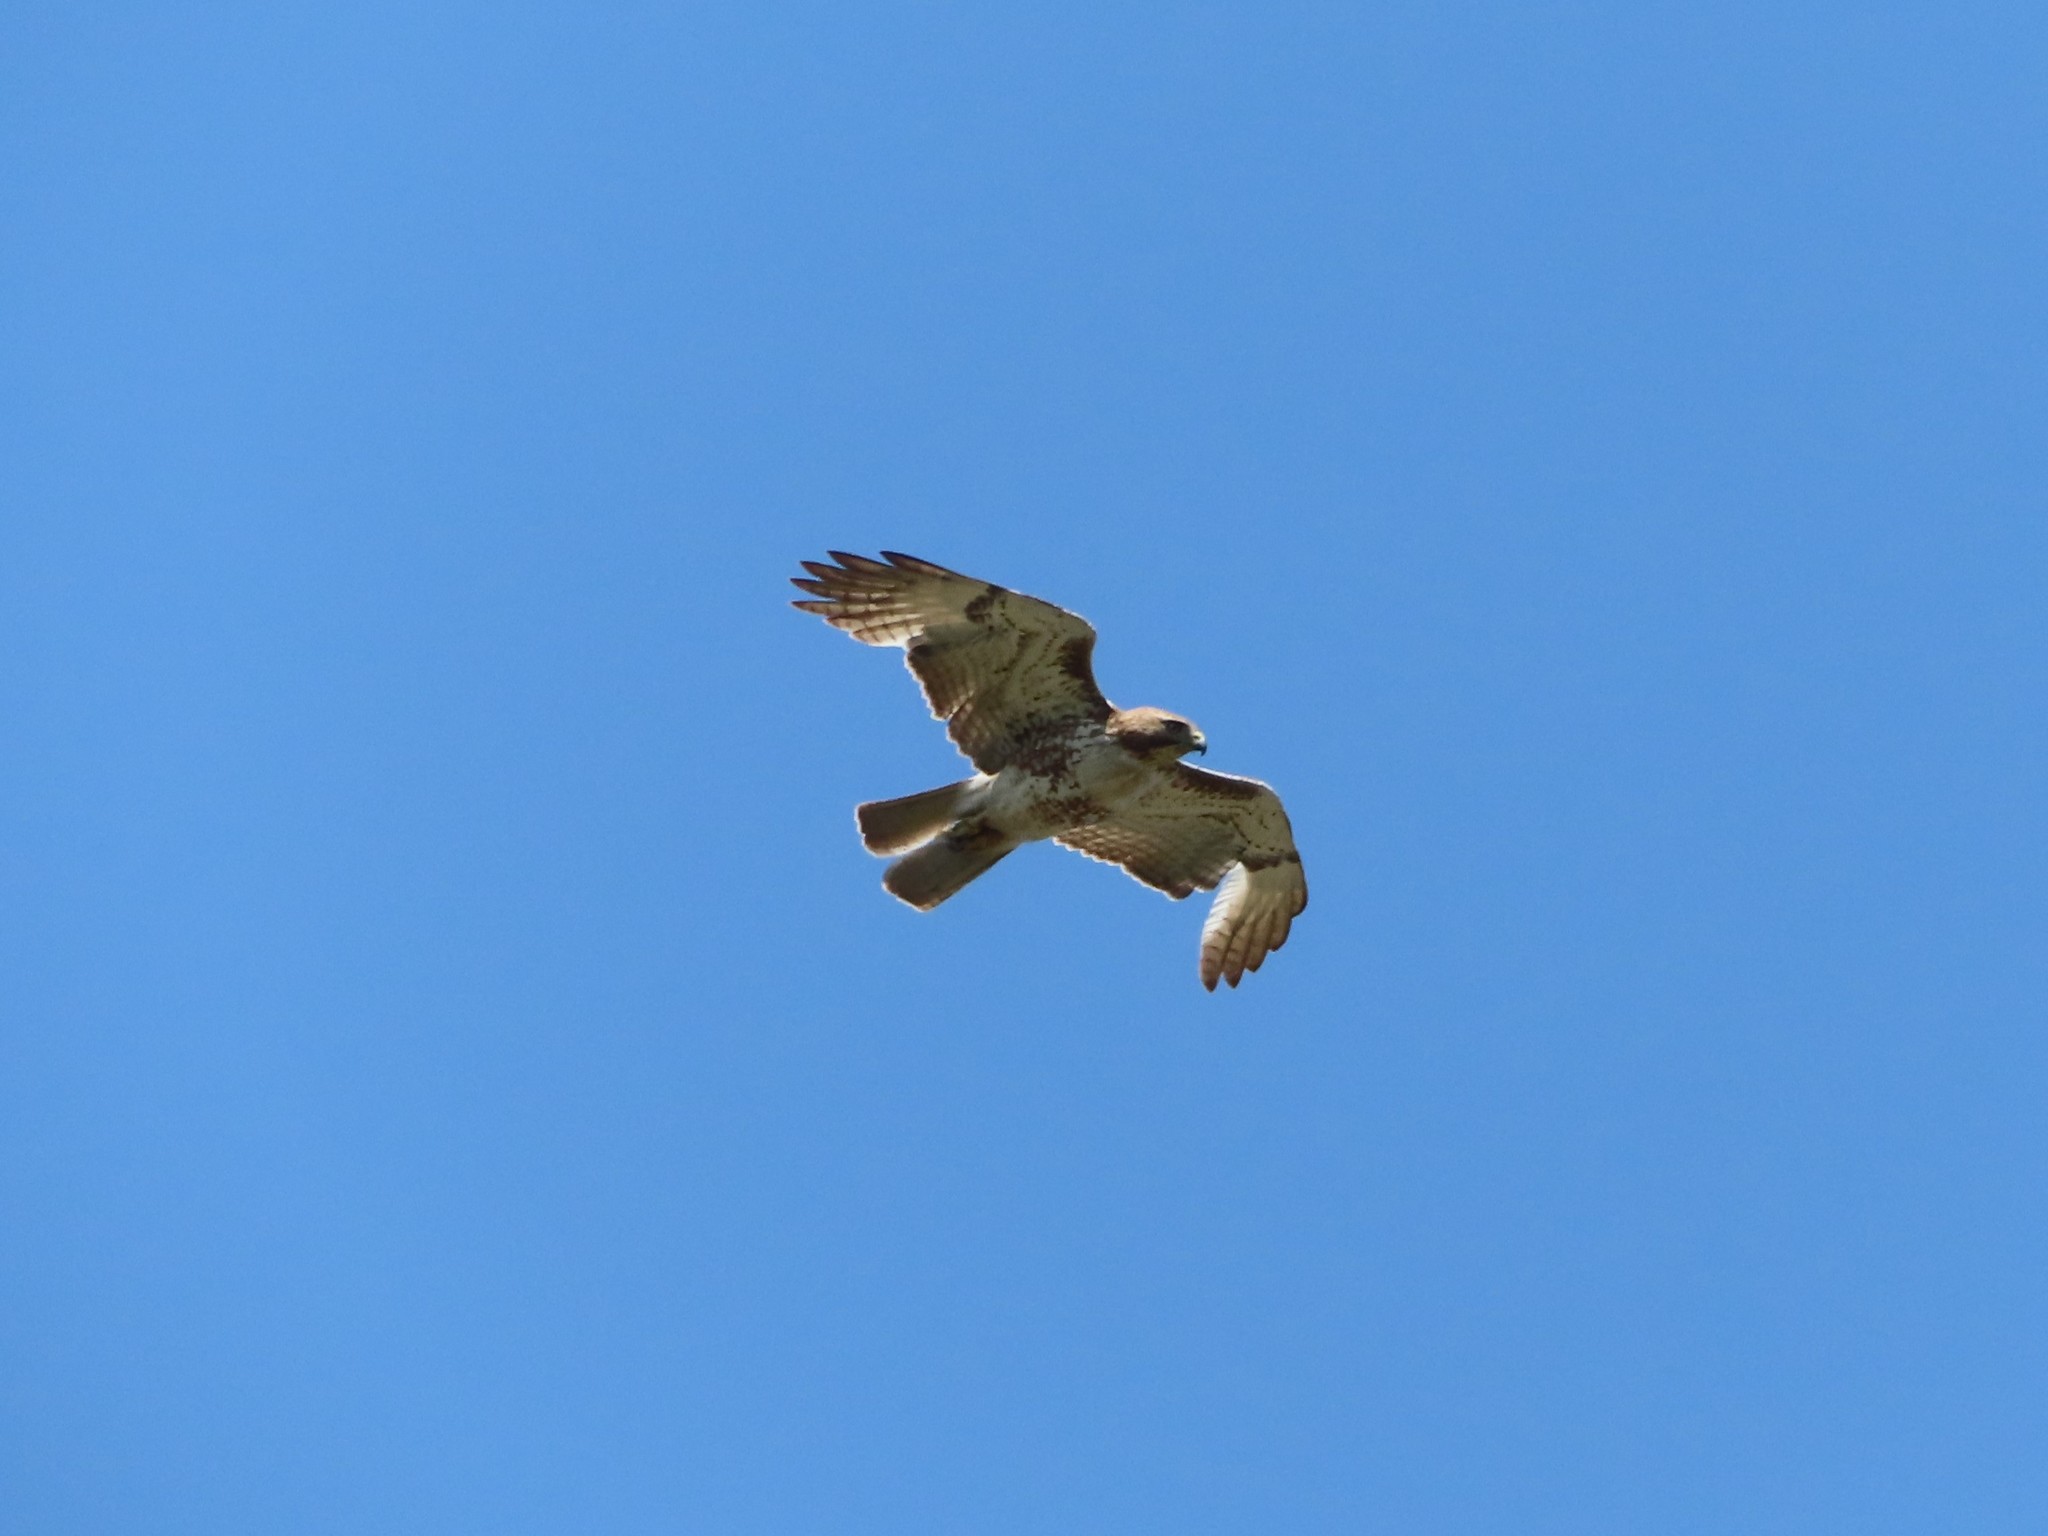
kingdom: Animalia
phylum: Chordata
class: Aves
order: Accipitriformes
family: Accipitridae
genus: Buteo
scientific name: Buteo jamaicensis
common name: Red-tailed hawk
